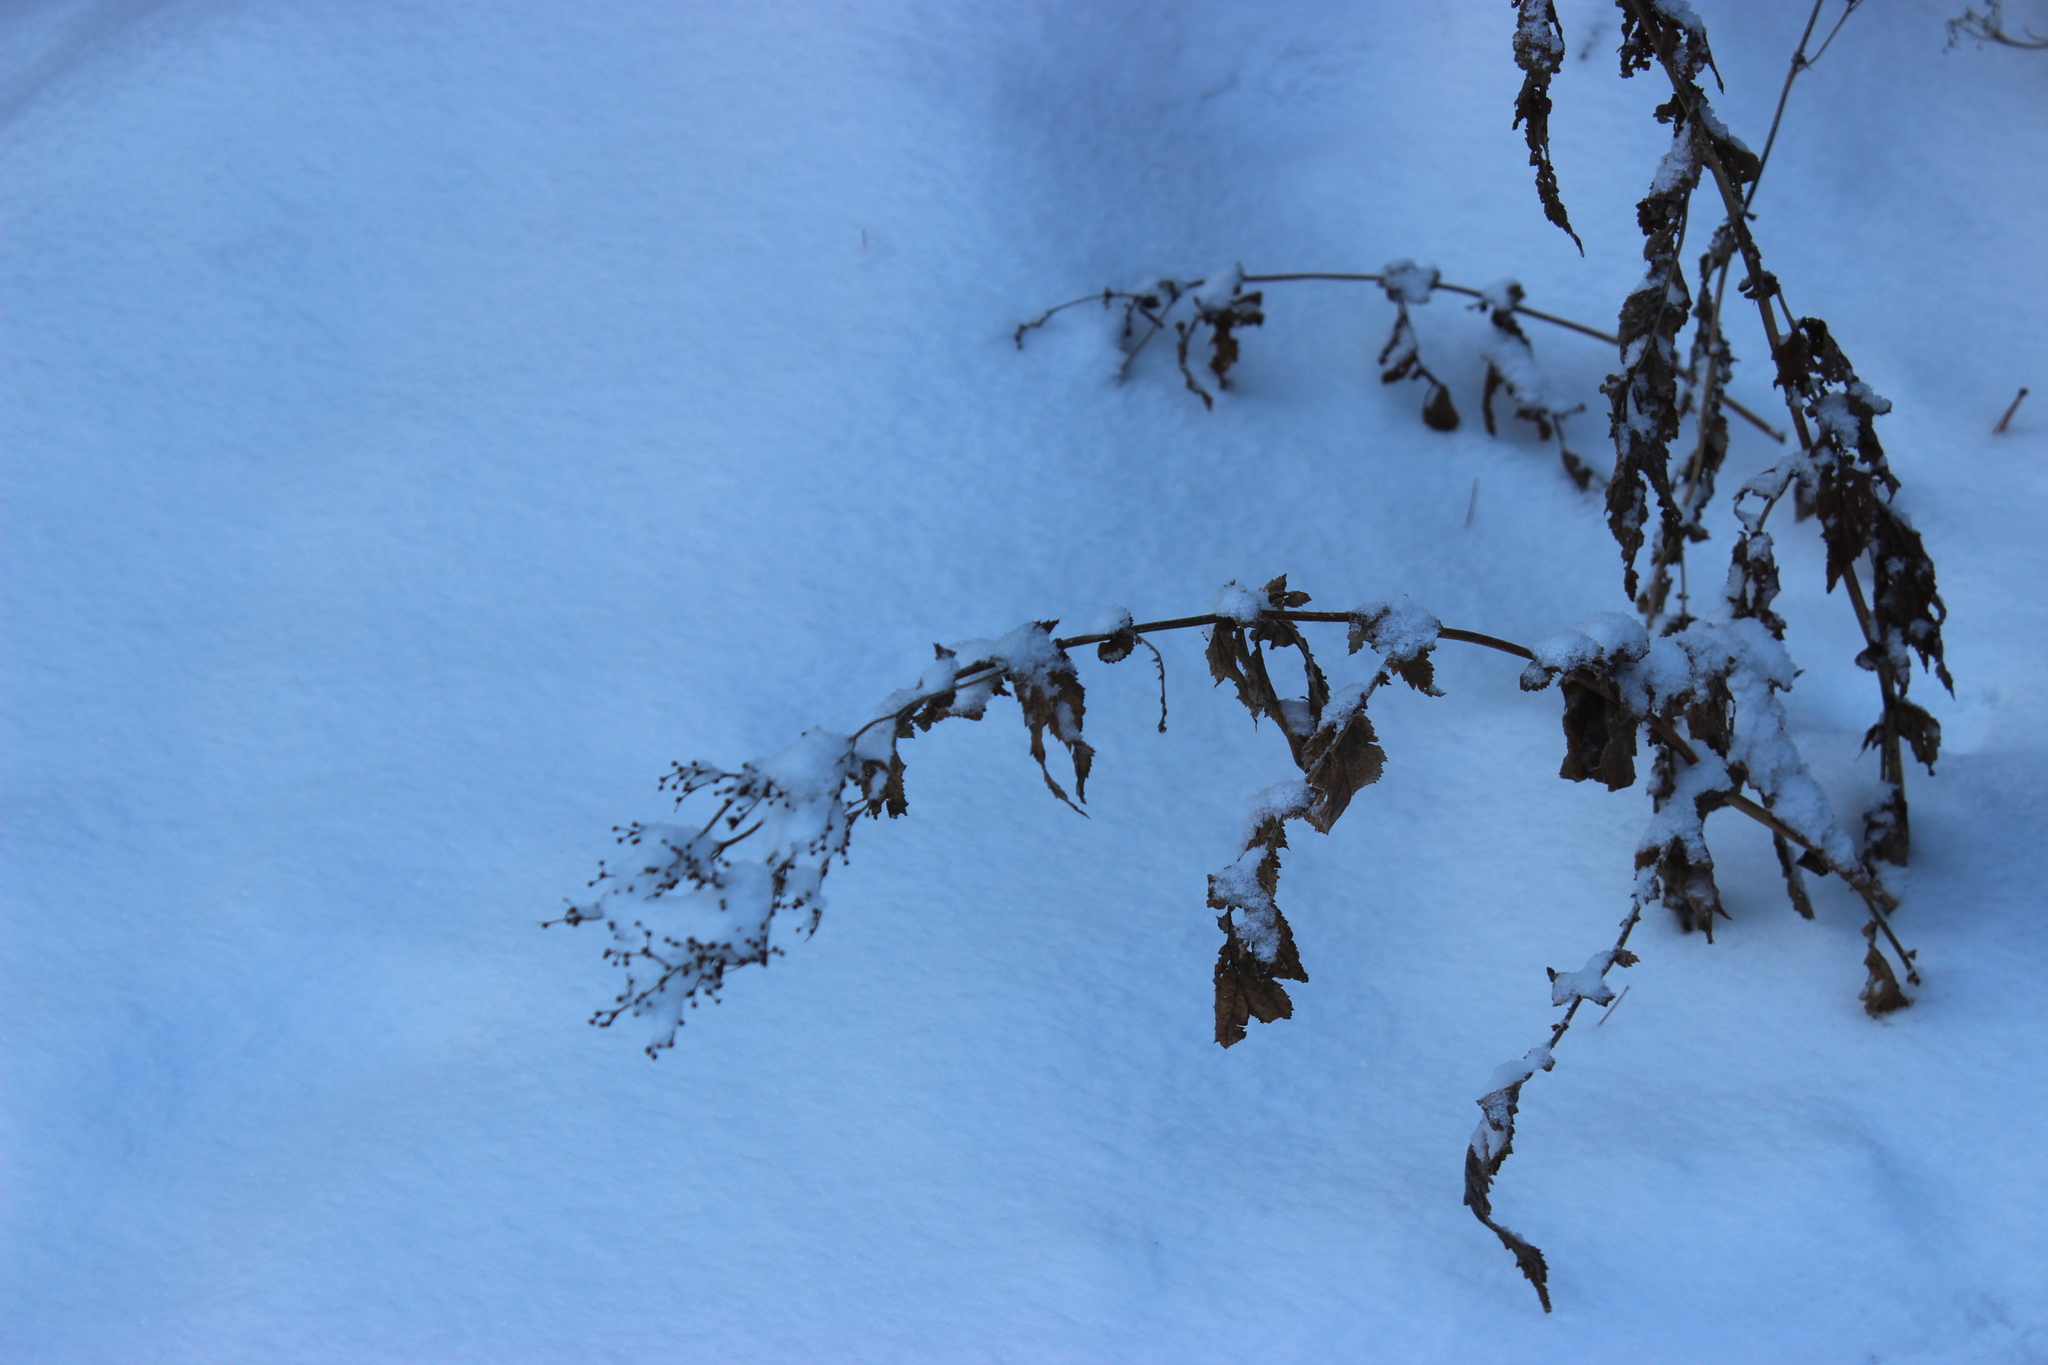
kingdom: Plantae
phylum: Tracheophyta
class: Magnoliopsida
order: Rosales
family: Rosaceae
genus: Filipendula
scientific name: Filipendula ulmaria
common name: Meadowsweet
